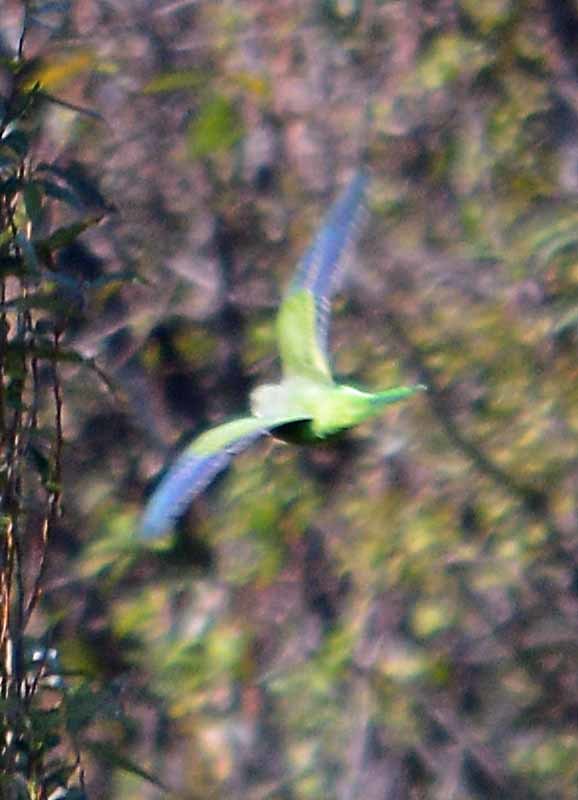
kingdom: Animalia
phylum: Chordata
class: Aves
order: Psittaciformes
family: Psittacidae
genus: Myiopsitta
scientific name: Myiopsitta monachus
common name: Monk parakeet
